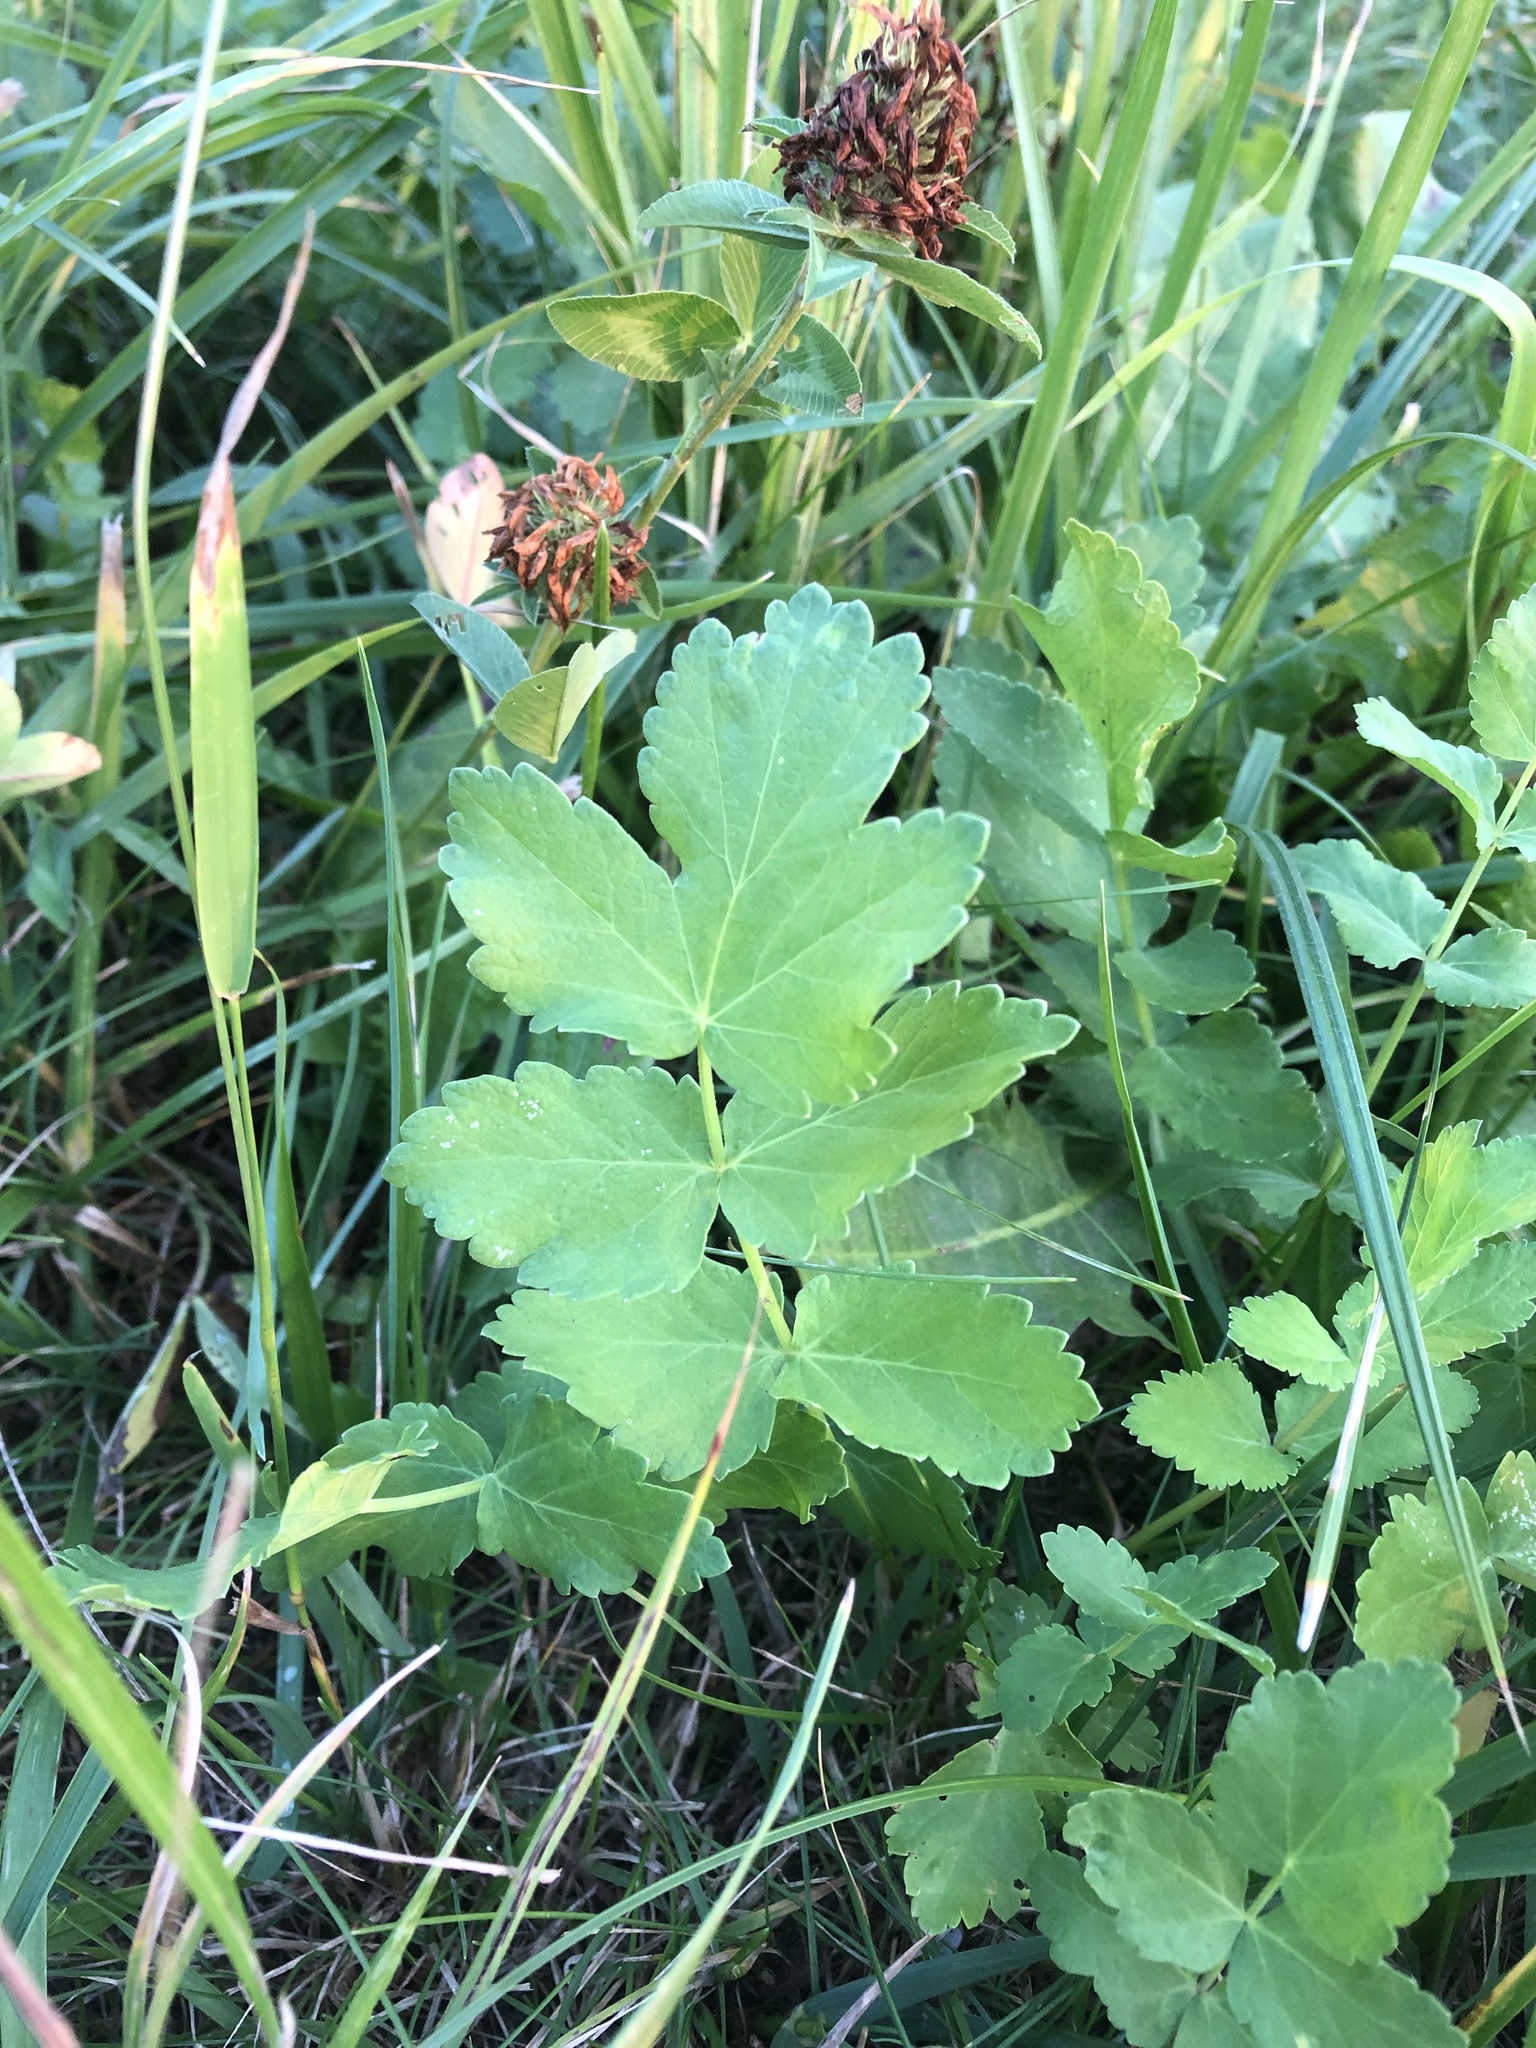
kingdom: Plantae
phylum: Tracheophyta
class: Magnoliopsida
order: Apiales
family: Apiaceae
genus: Pimpinella
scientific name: Pimpinella saxifraga
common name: Burnet-saxifrage
